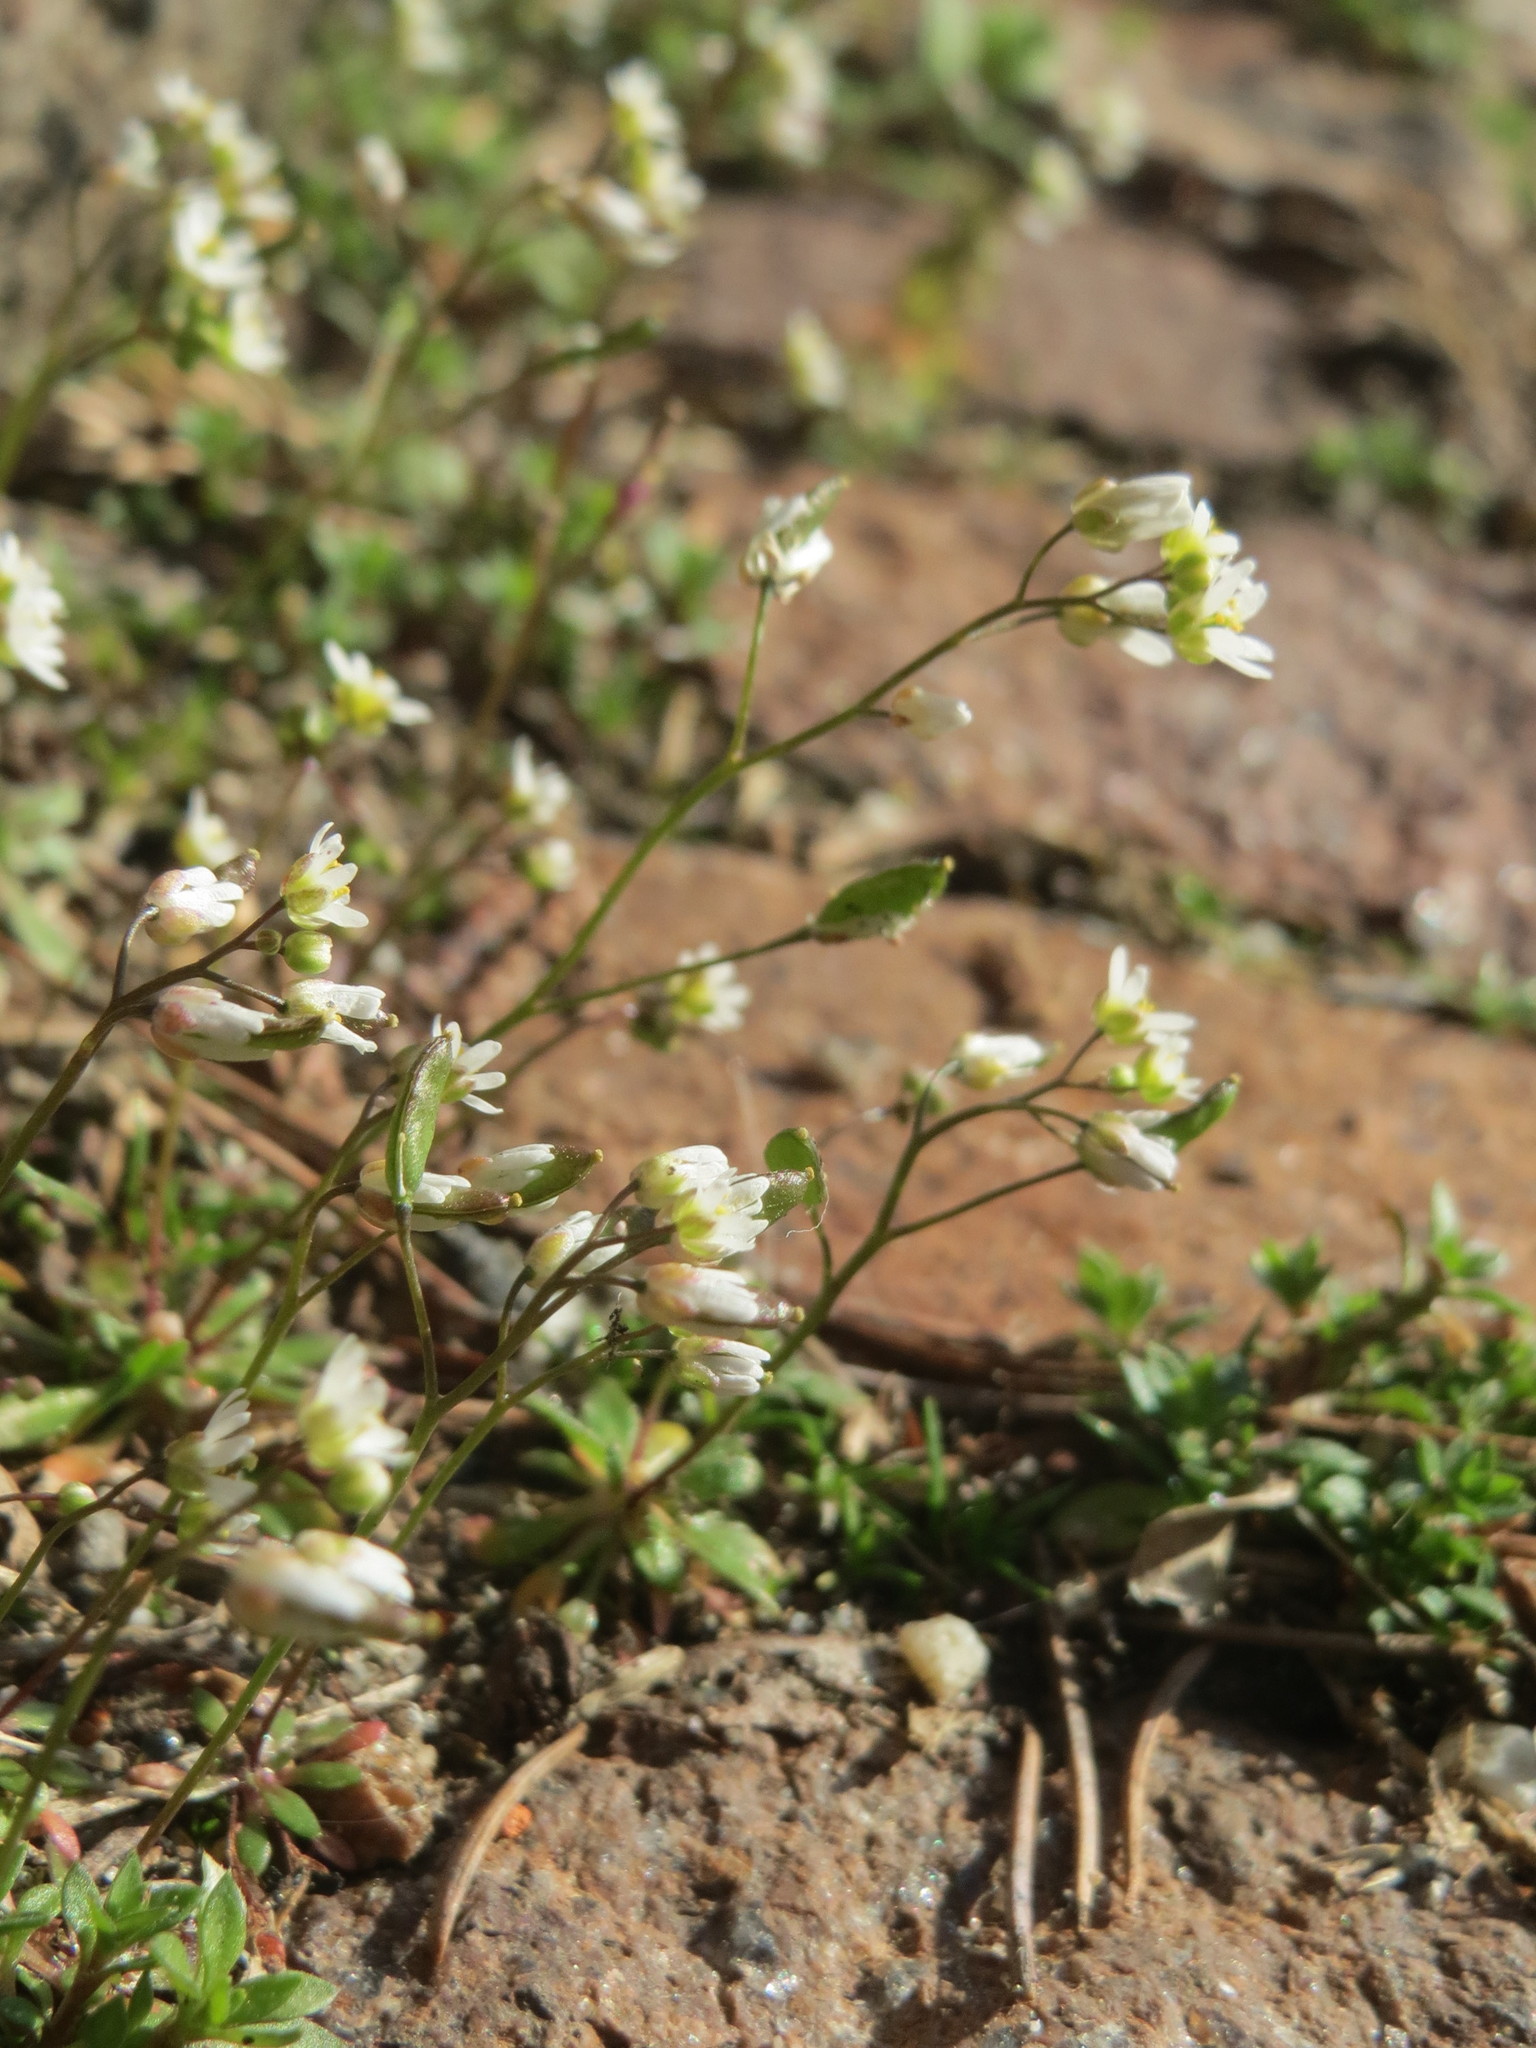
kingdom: Plantae
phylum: Tracheophyta
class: Magnoliopsida
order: Brassicales
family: Brassicaceae
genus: Draba
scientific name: Draba verna
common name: Spring draba
